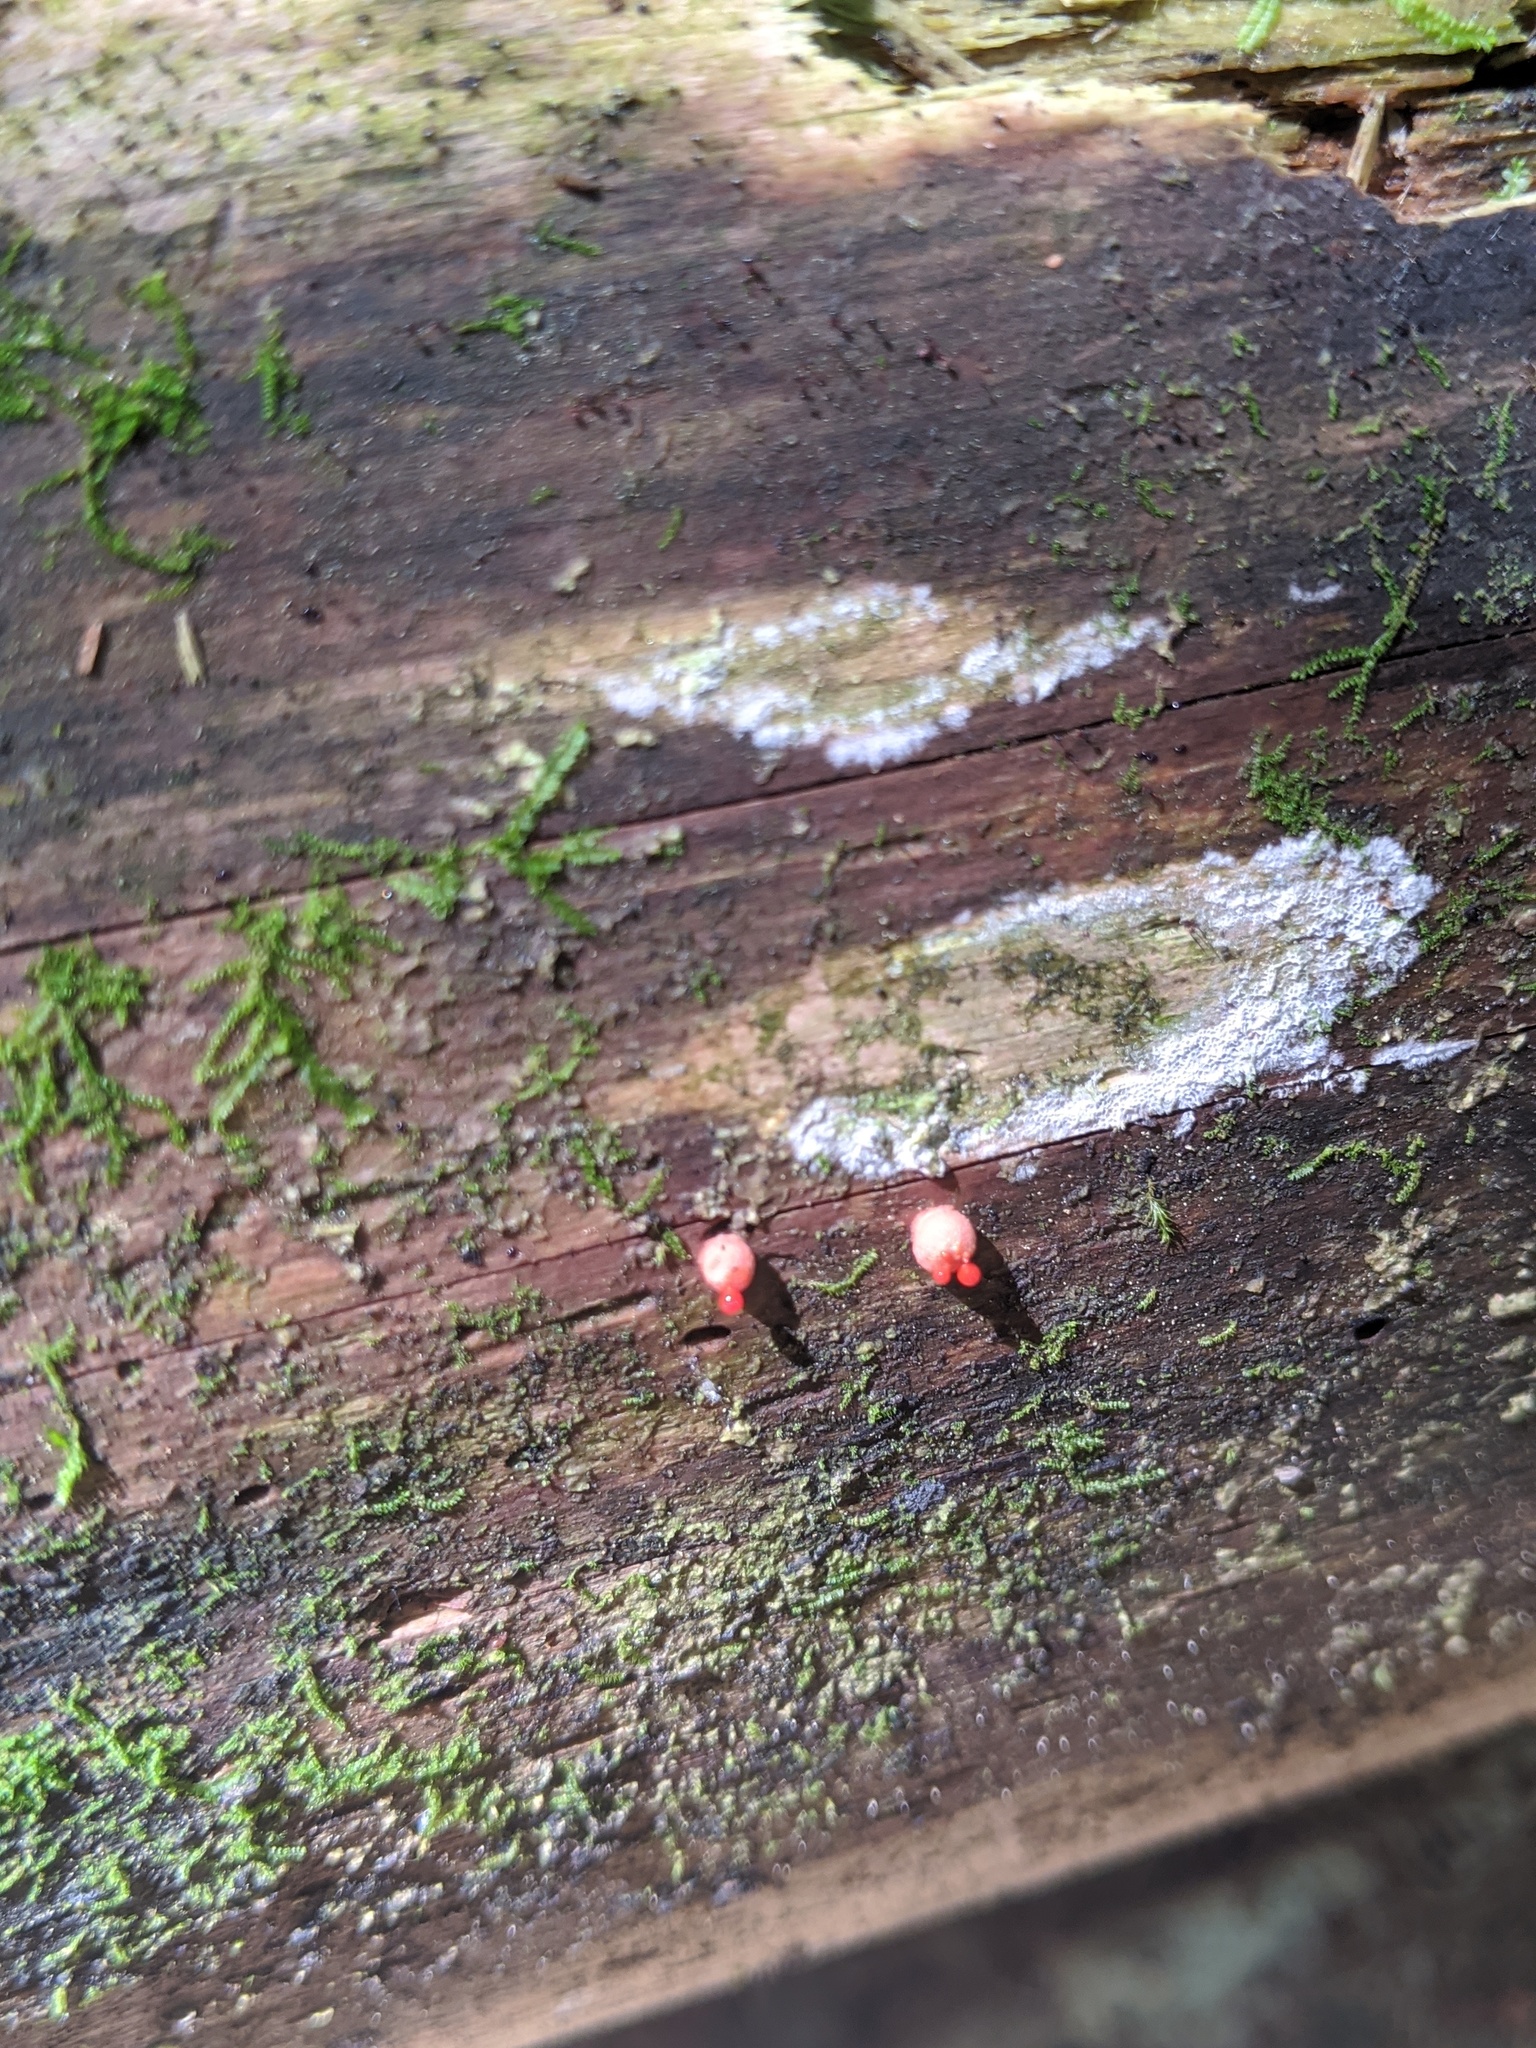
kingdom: Protozoa
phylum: Mycetozoa
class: Myxomycetes
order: Cribrariales
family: Tubiferaceae
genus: Lycogala
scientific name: Lycogala epidendrum
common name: Wolf's milk
